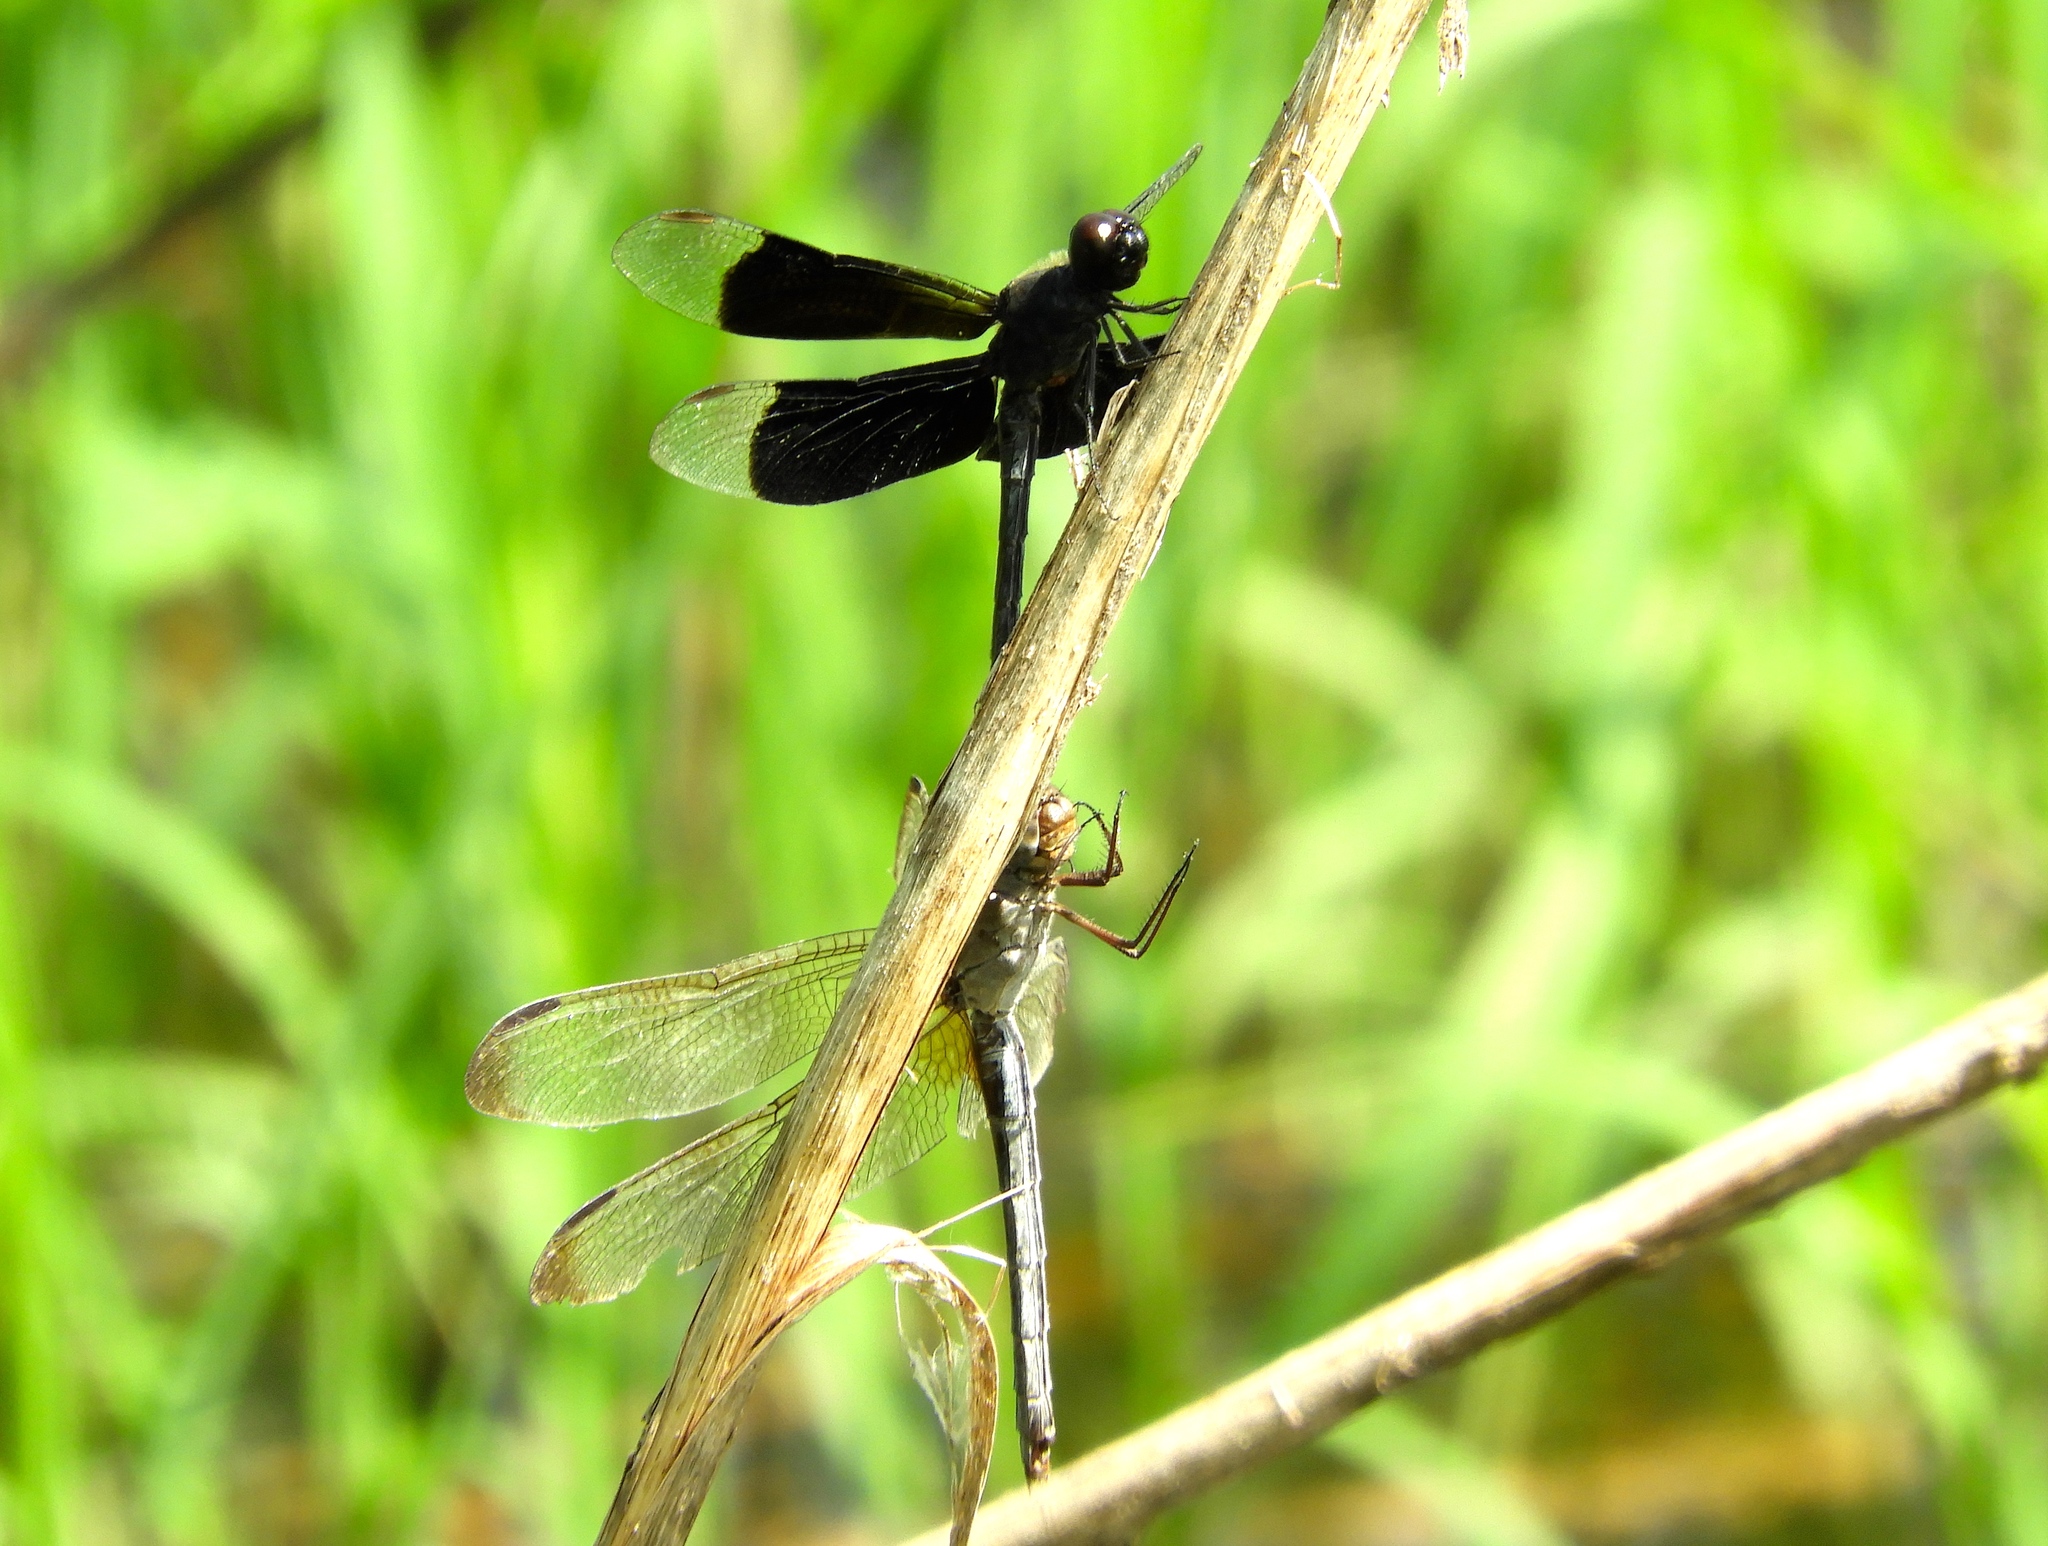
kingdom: Animalia
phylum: Arthropoda
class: Insecta
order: Odonata
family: Libellulidae
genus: Erythrodiplax
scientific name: Erythrodiplax funerea
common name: Black-winged dragonlet
